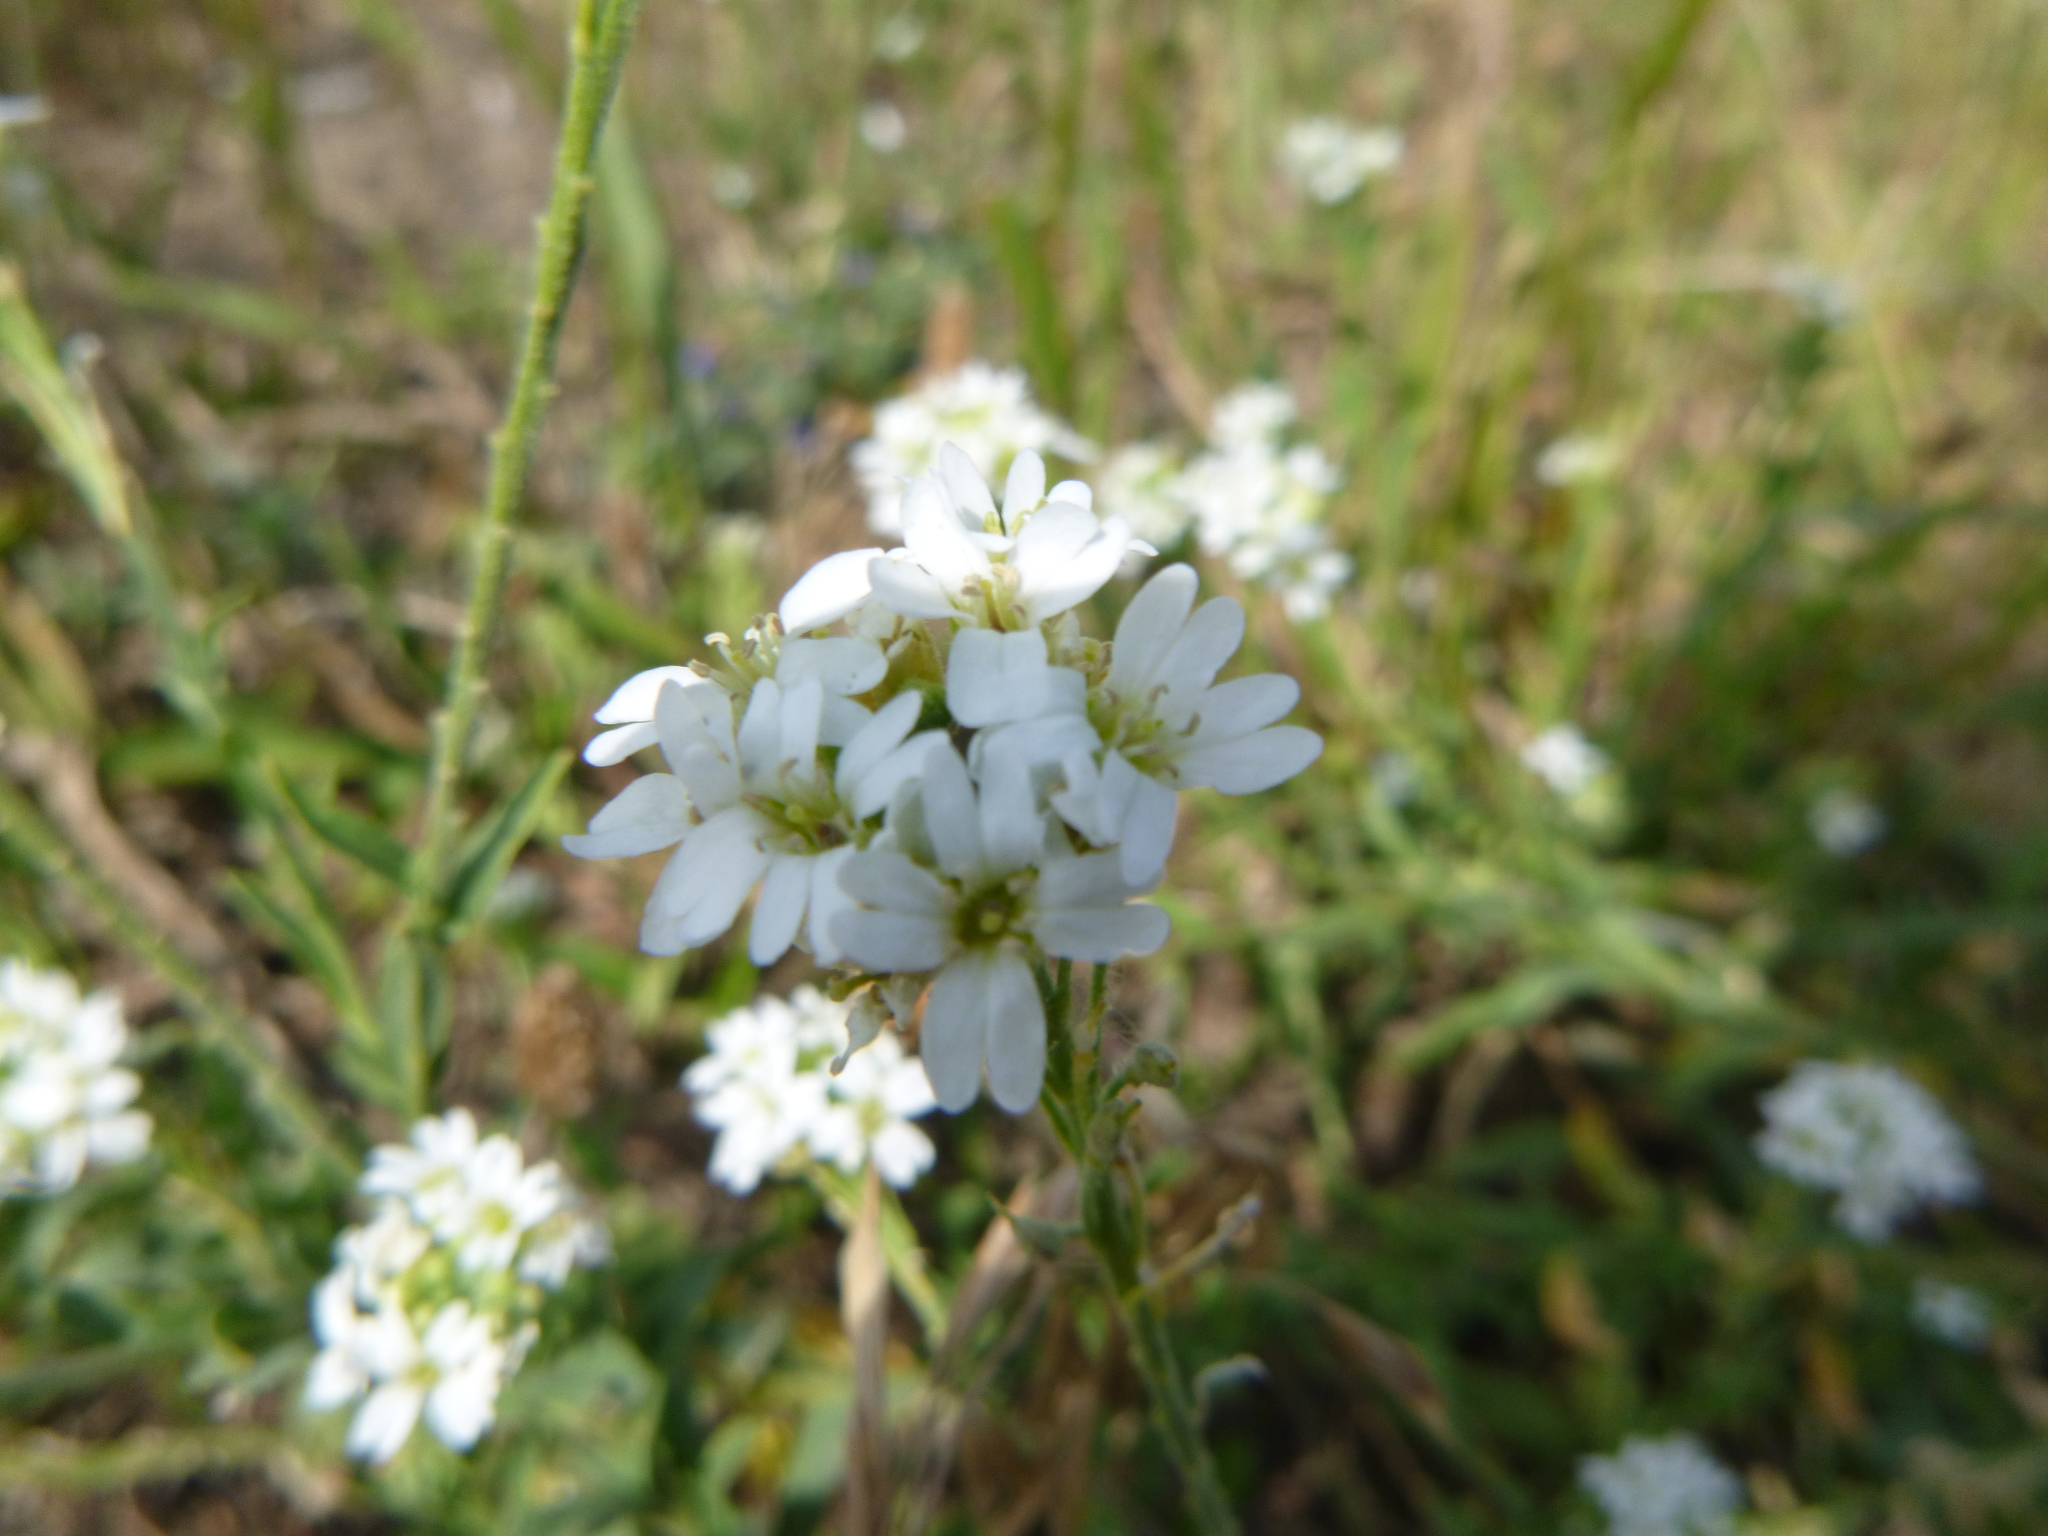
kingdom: Plantae
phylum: Tracheophyta
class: Magnoliopsida
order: Brassicales
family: Brassicaceae
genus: Berteroa
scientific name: Berteroa incana
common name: Hoary alison
